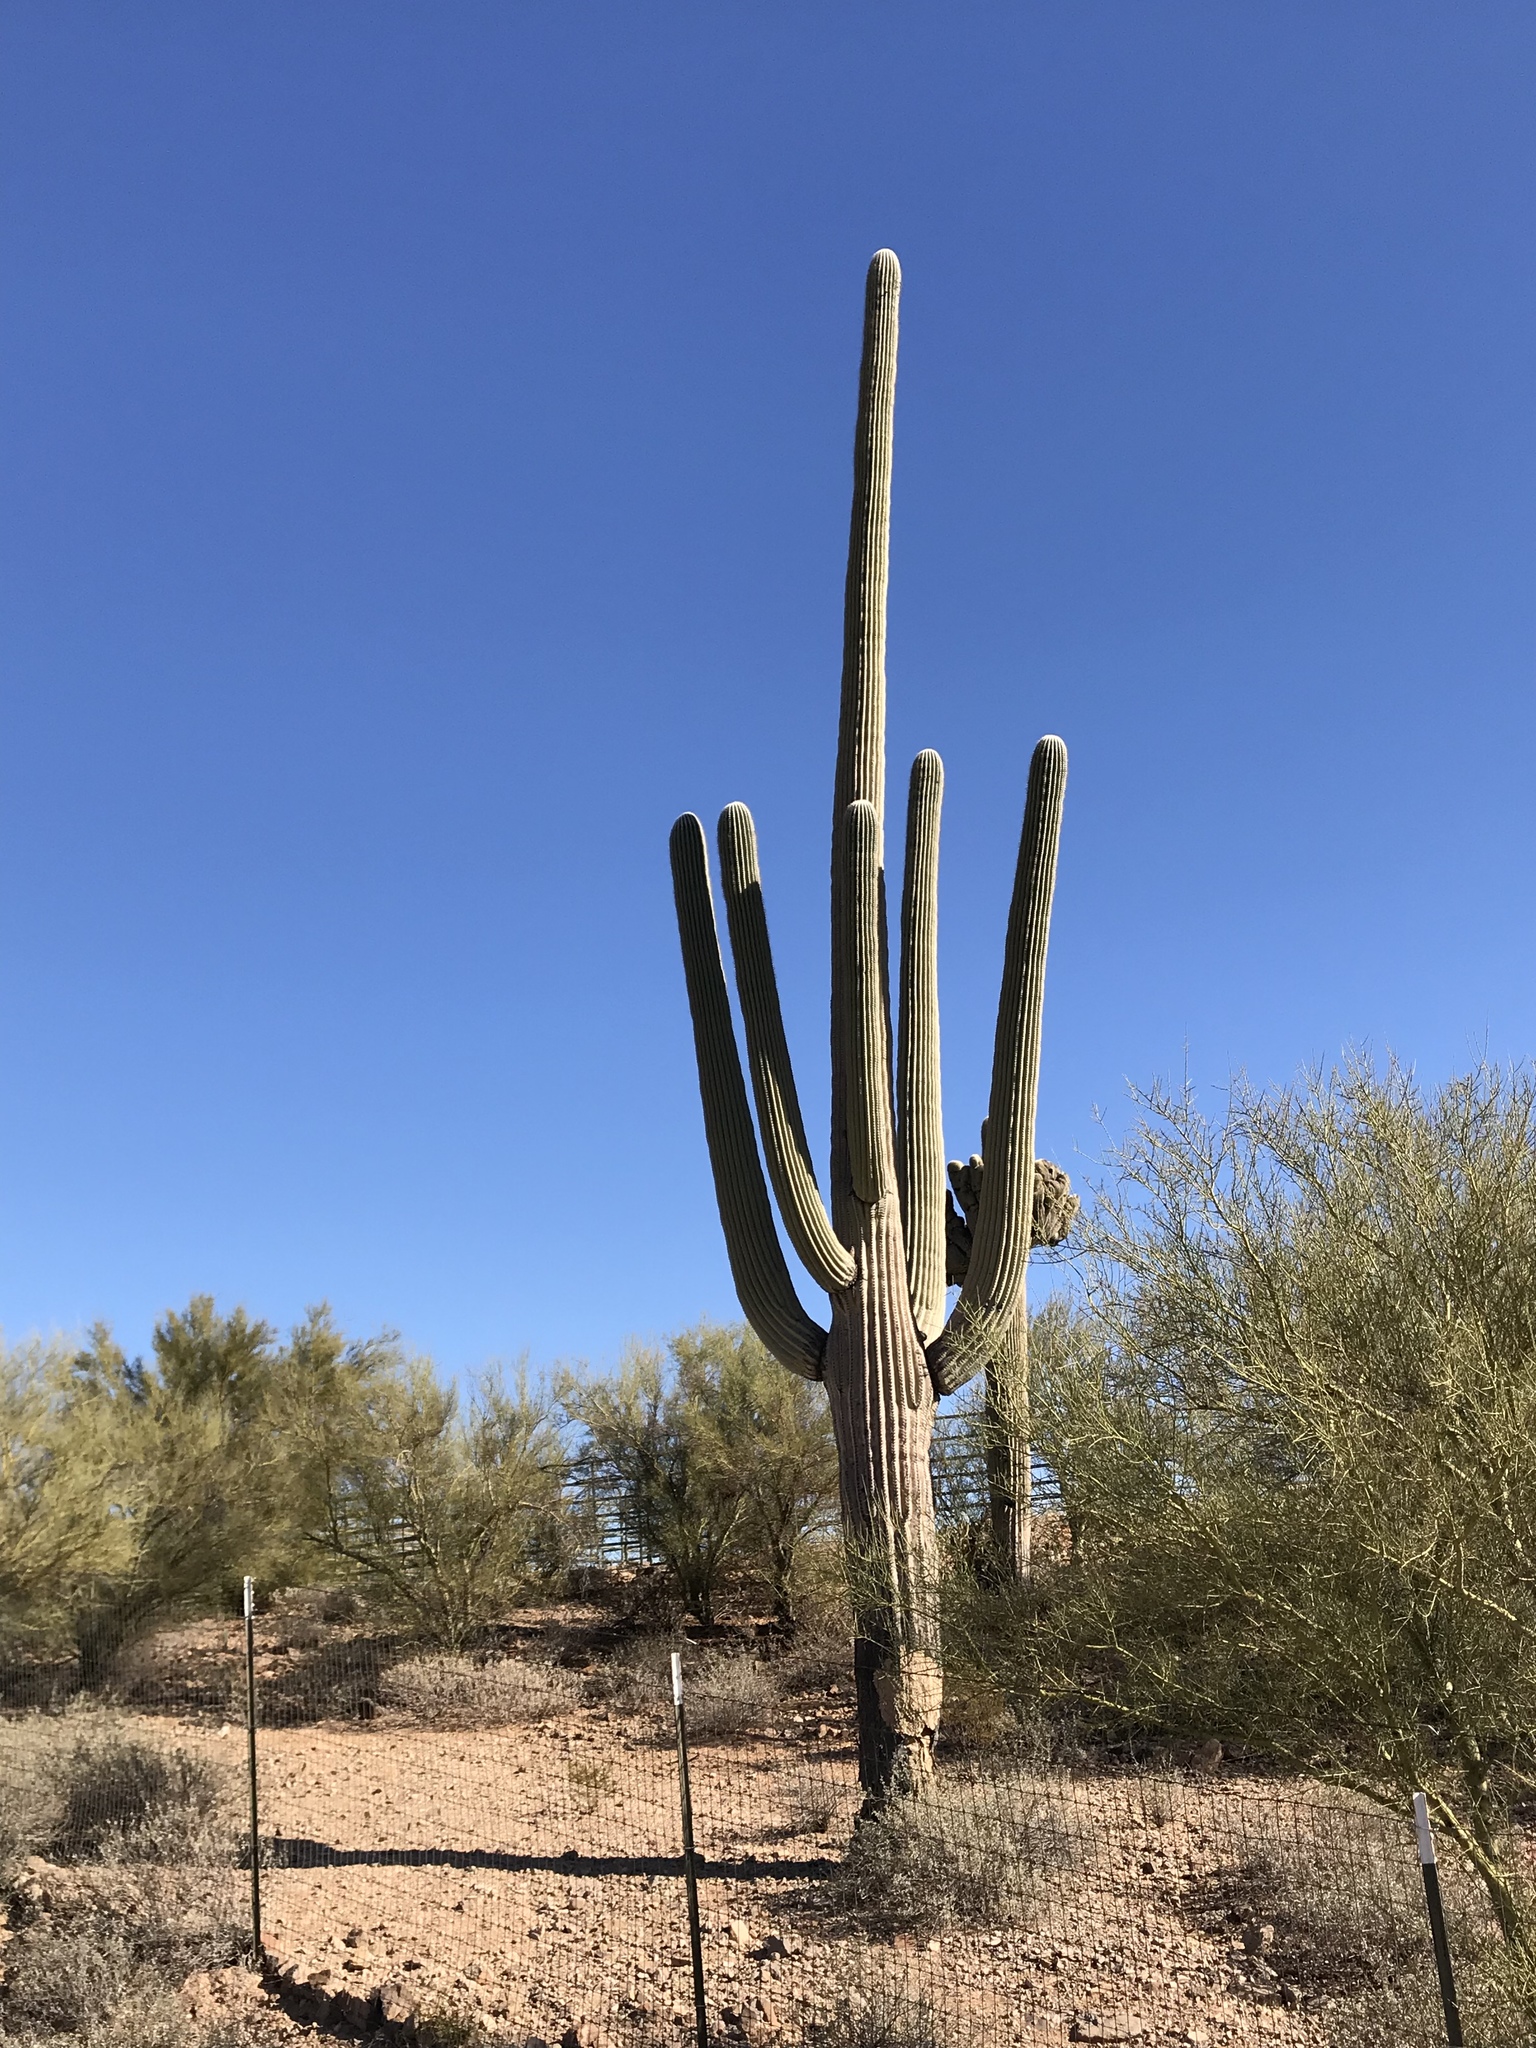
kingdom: Plantae
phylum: Tracheophyta
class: Magnoliopsida
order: Caryophyllales
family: Cactaceae
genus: Carnegiea
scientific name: Carnegiea gigantea
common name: Saguaro
